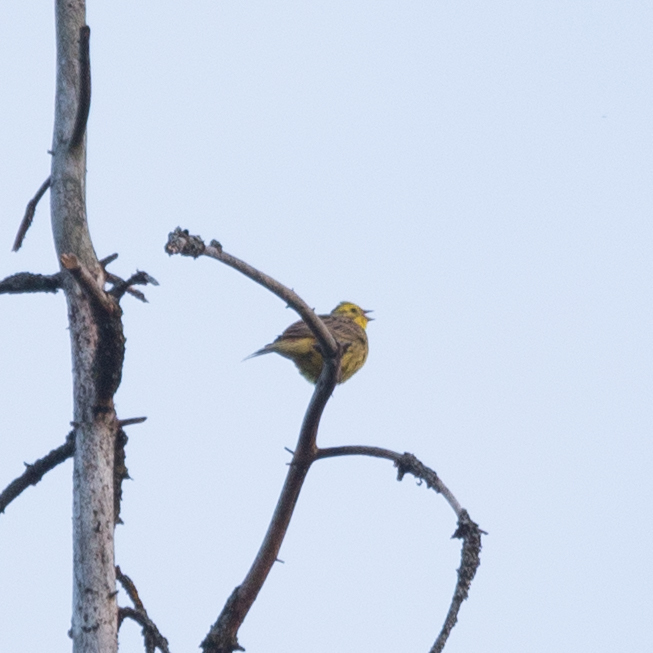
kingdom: Animalia
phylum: Chordata
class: Aves
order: Passeriformes
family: Emberizidae
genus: Emberiza
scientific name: Emberiza citrinella
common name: Yellowhammer
